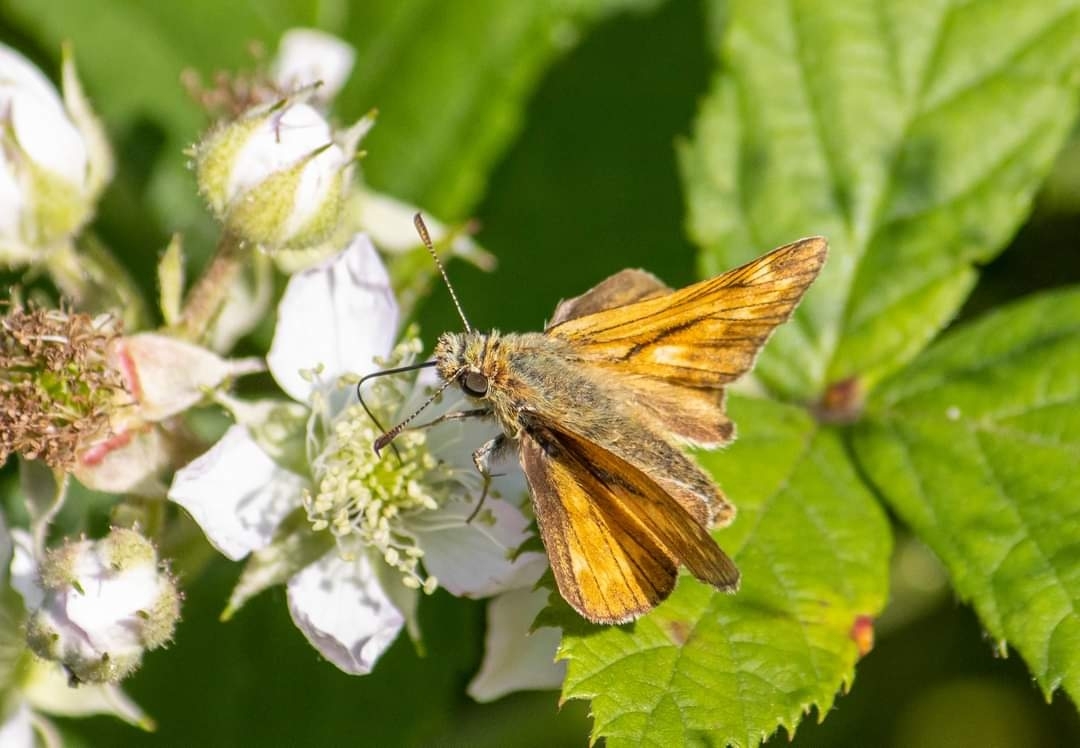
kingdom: Animalia
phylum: Arthropoda
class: Insecta
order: Lepidoptera
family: Hesperiidae
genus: Ochlodes
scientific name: Ochlodes venata
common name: Large skipper
